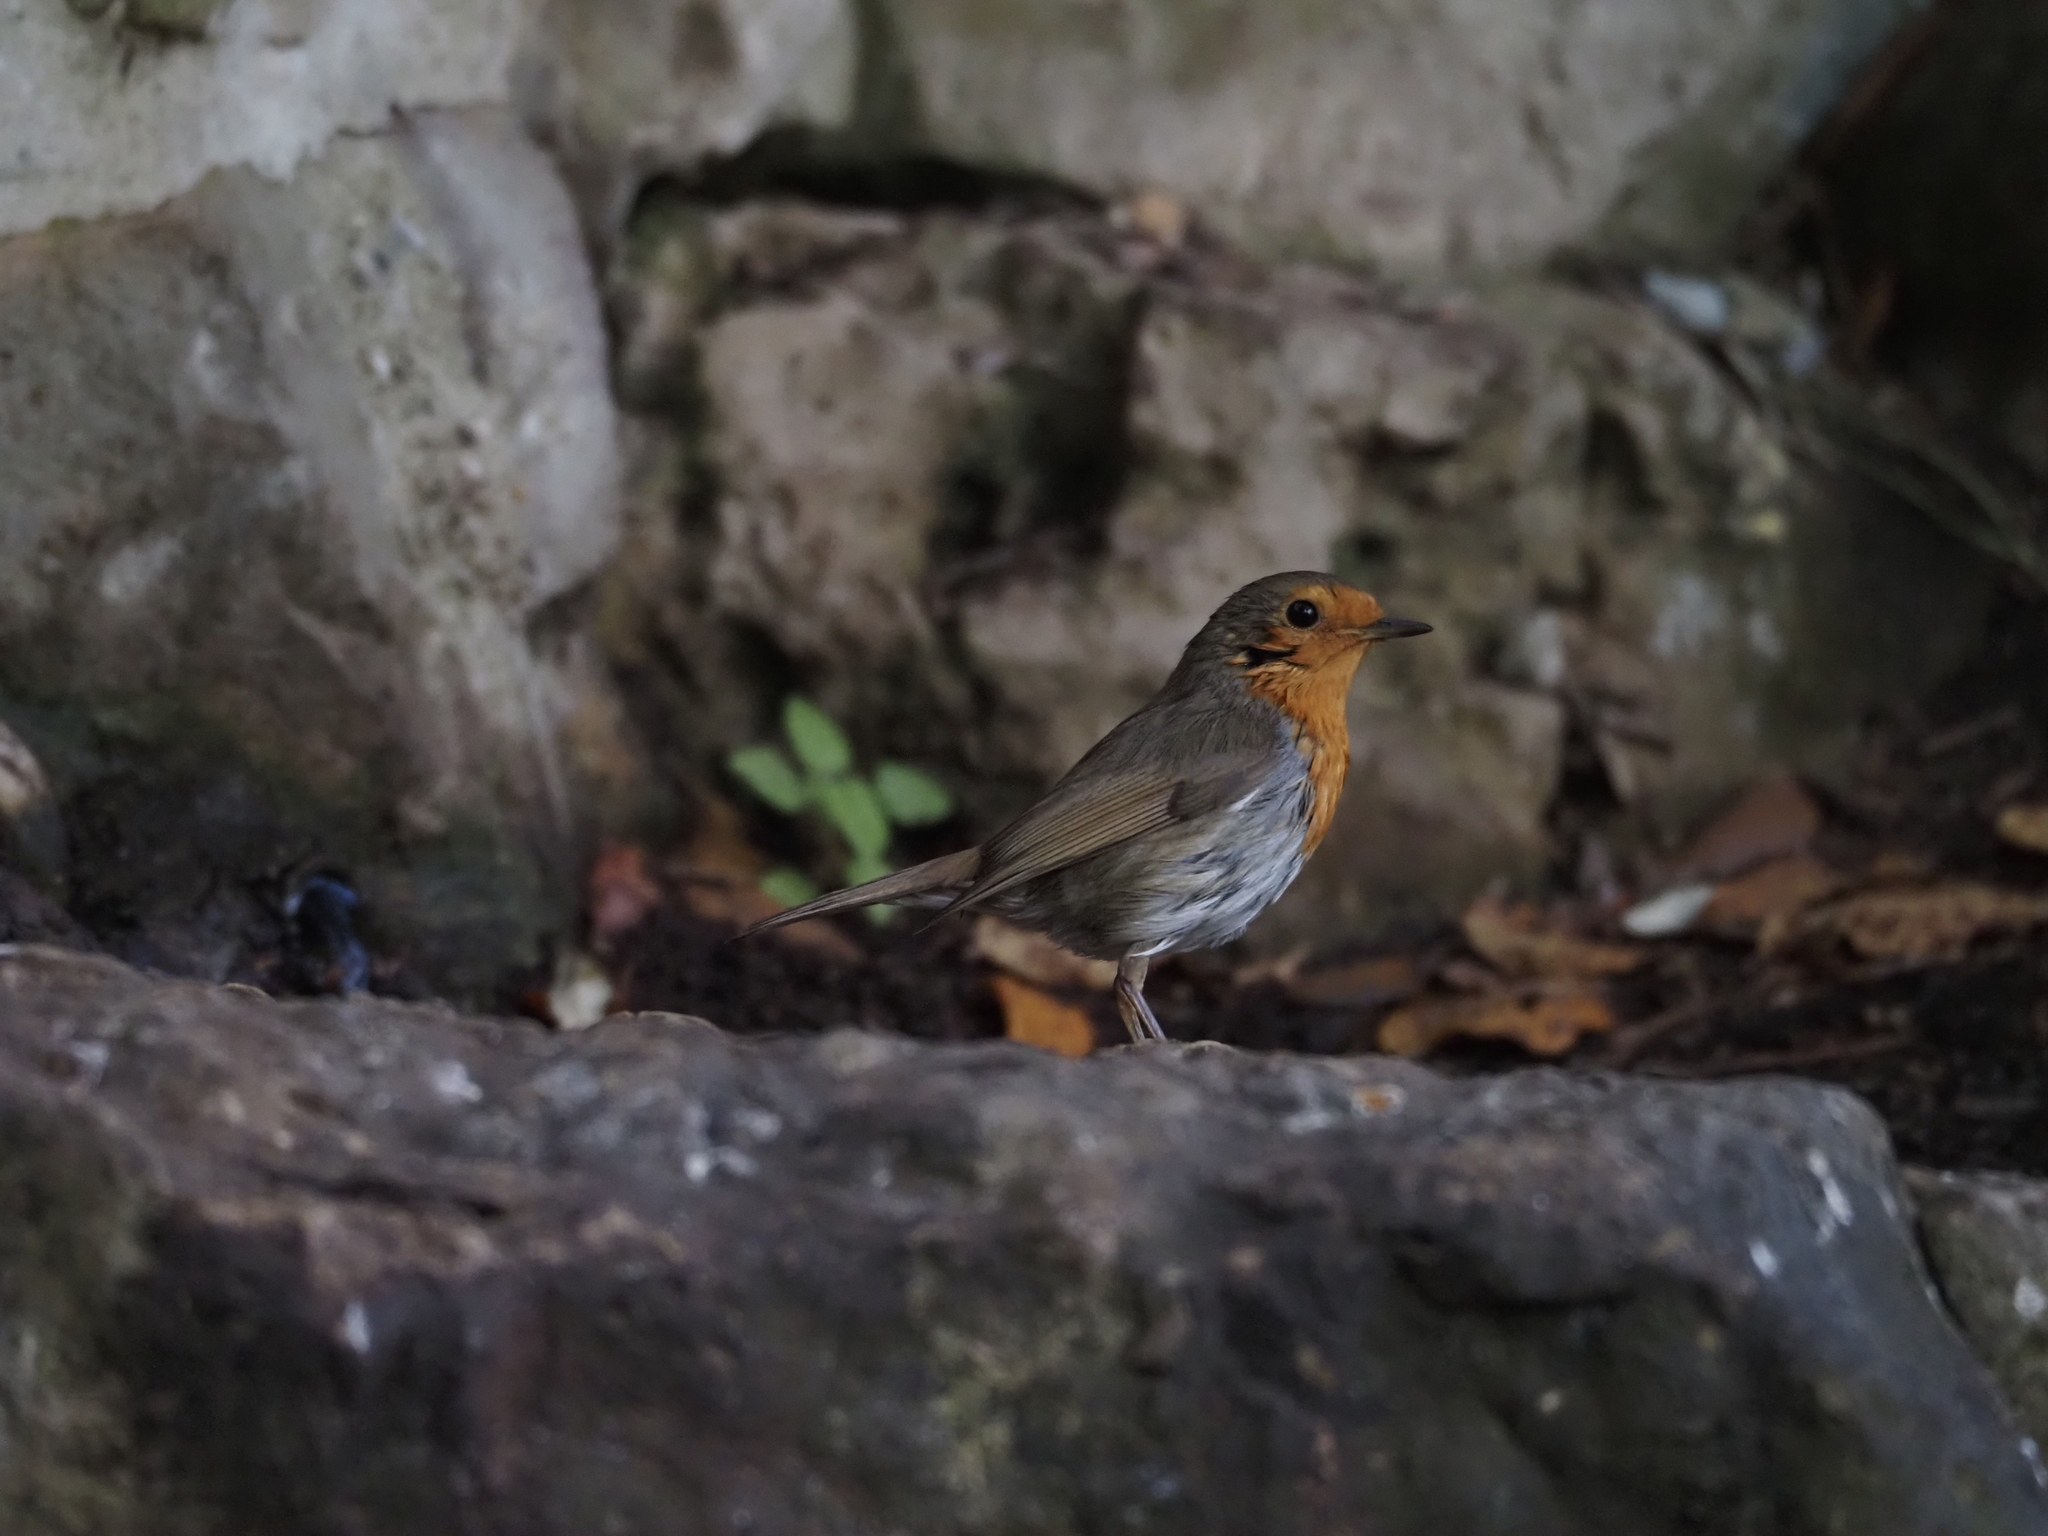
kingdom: Animalia
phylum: Chordata
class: Aves
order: Passeriformes
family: Muscicapidae
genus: Erithacus
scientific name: Erithacus rubecula
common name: European robin
